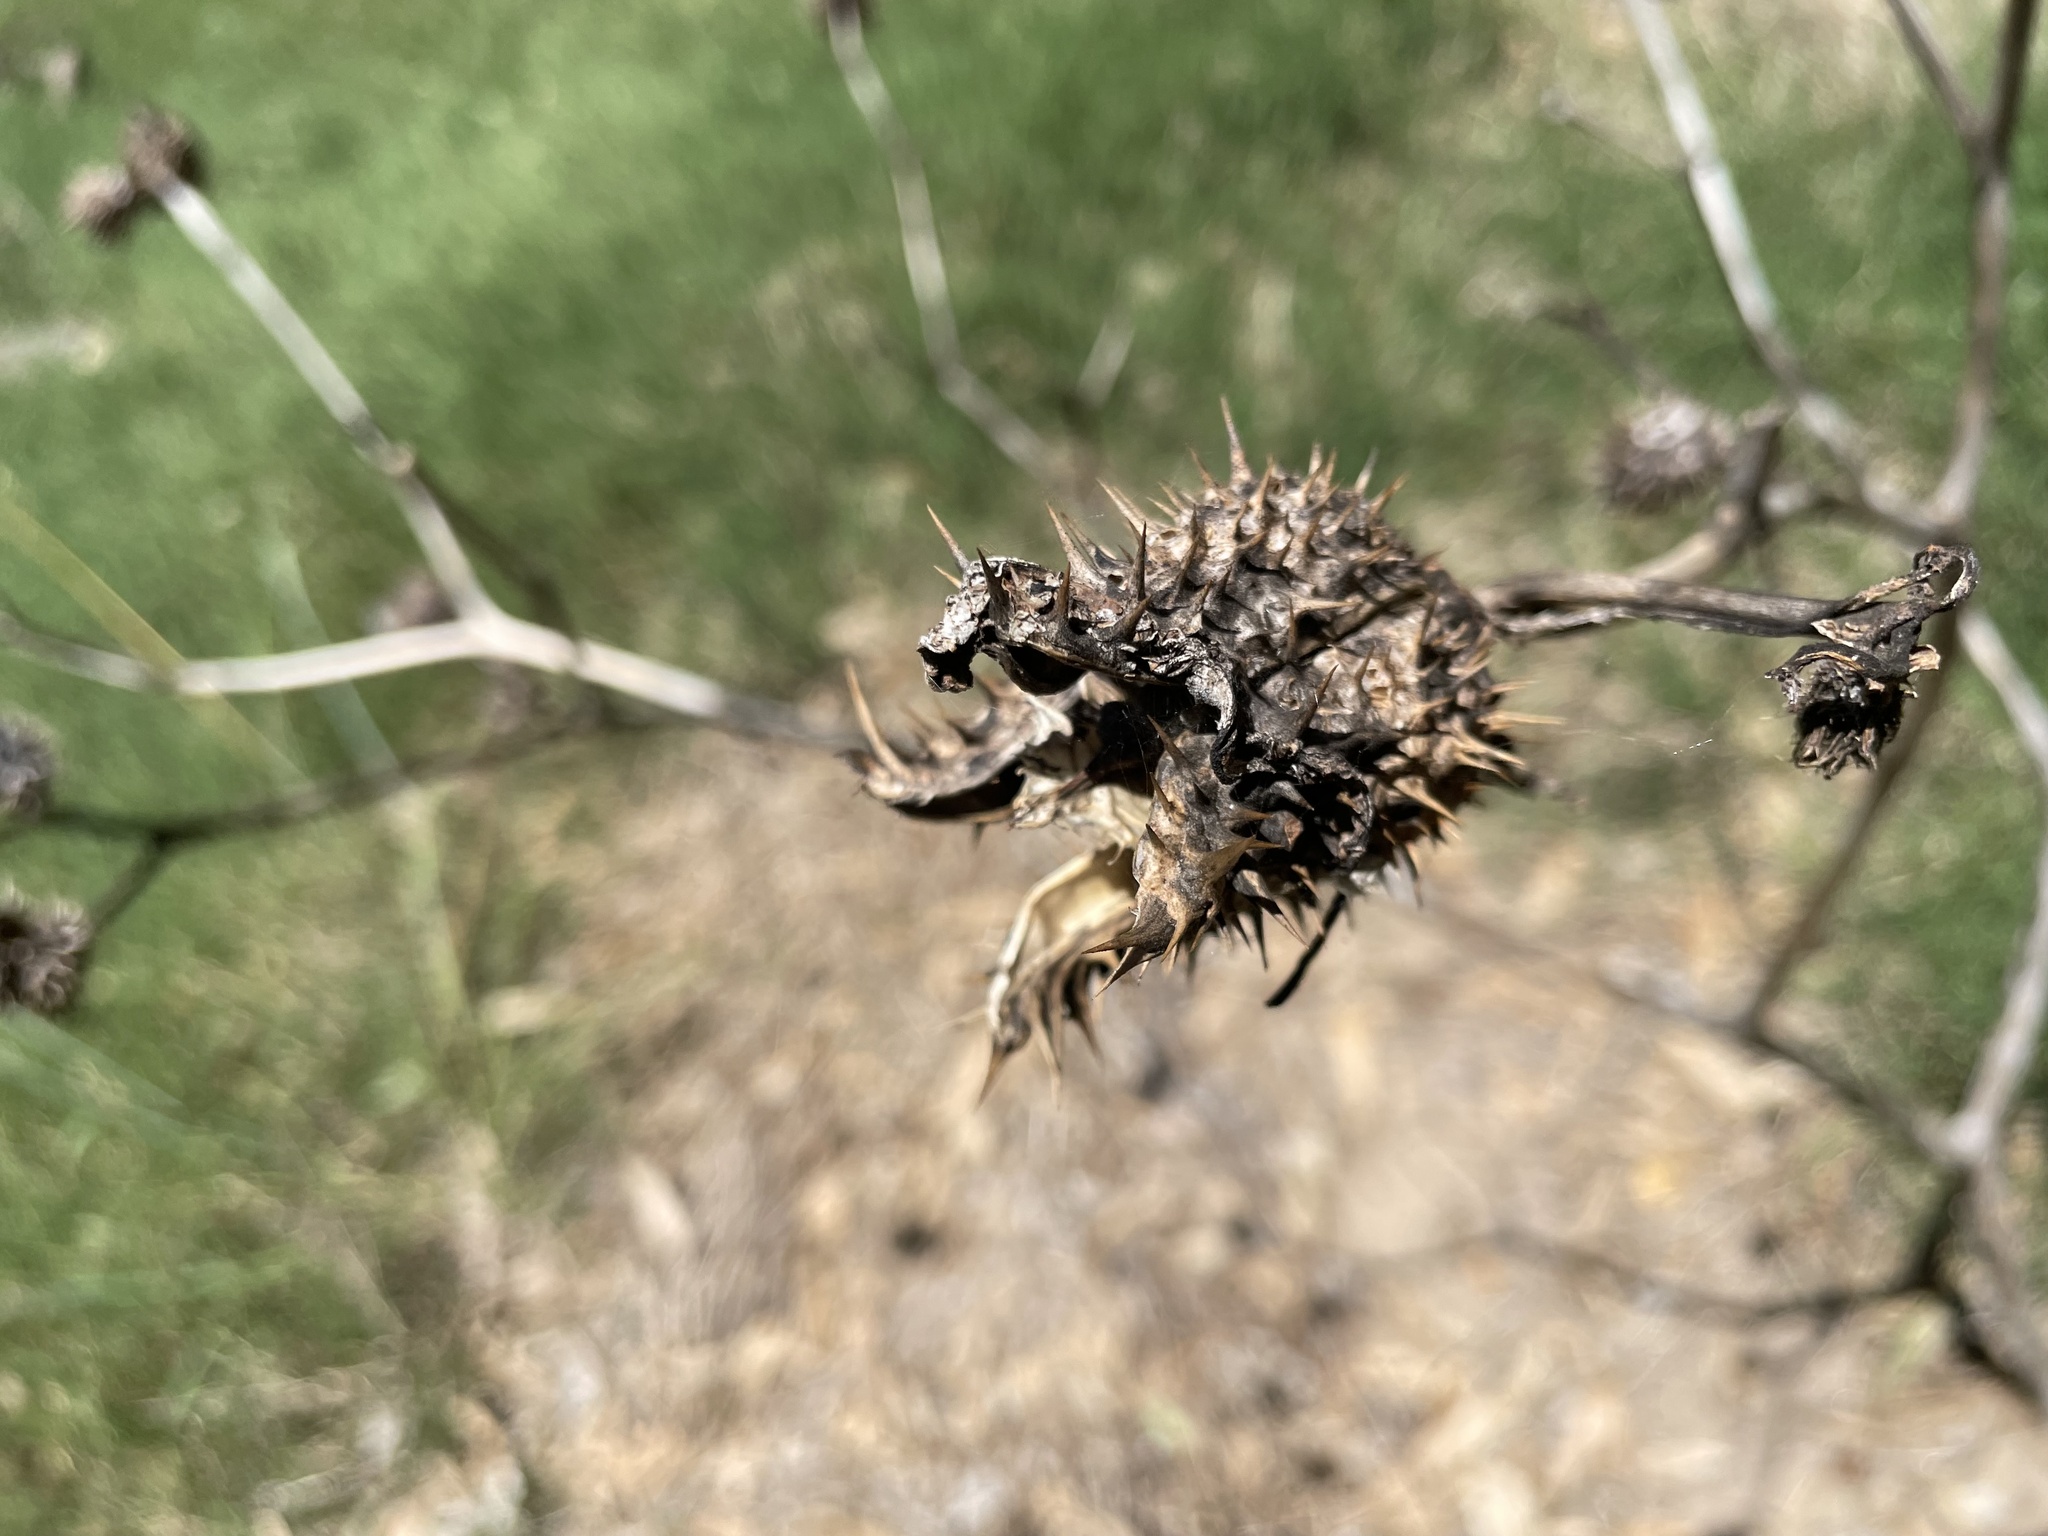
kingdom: Plantae
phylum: Tracheophyta
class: Magnoliopsida
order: Solanales
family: Solanaceae
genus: Datura
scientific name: Datura stramonium
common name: Thorn-apple
